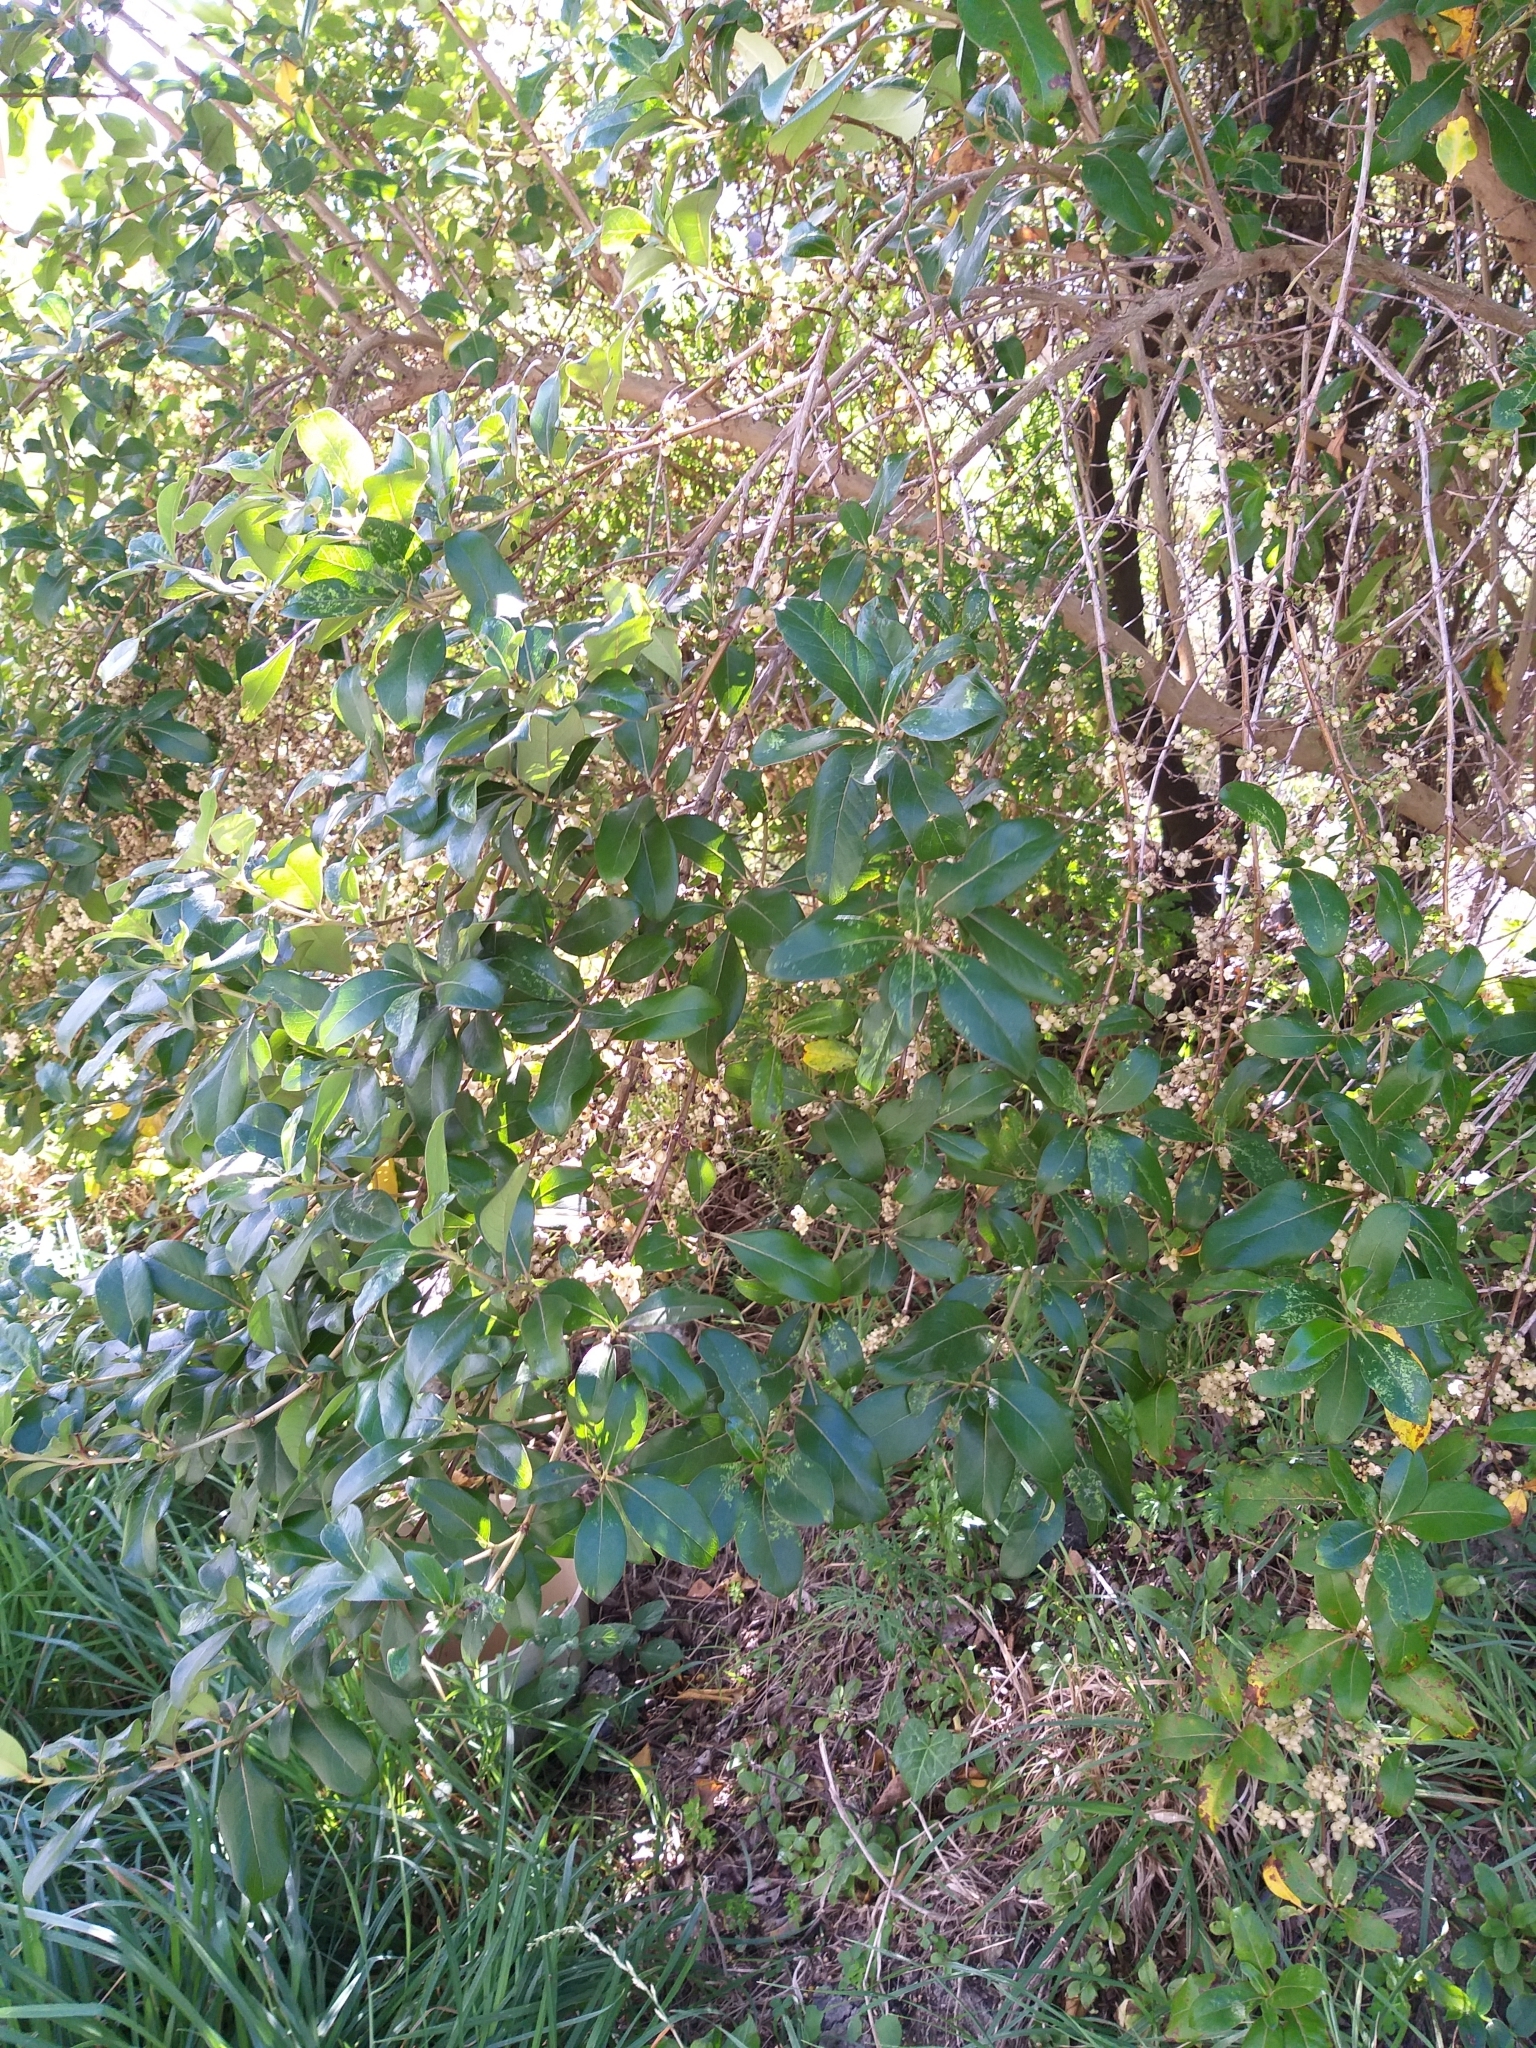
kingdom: Plantae
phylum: Tracheophyta
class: Magnoliopsida
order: Gentianales
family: Rubiaceae
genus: Coprosma
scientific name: Coprosma robusta
